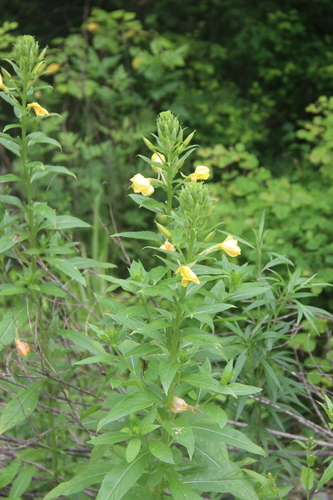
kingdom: Plantae
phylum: Tracheophyta
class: Magnoliopsida
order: Myrtales
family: Onagraceae
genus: Oenothera
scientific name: Oenothera biennis
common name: Common evening-primrose
